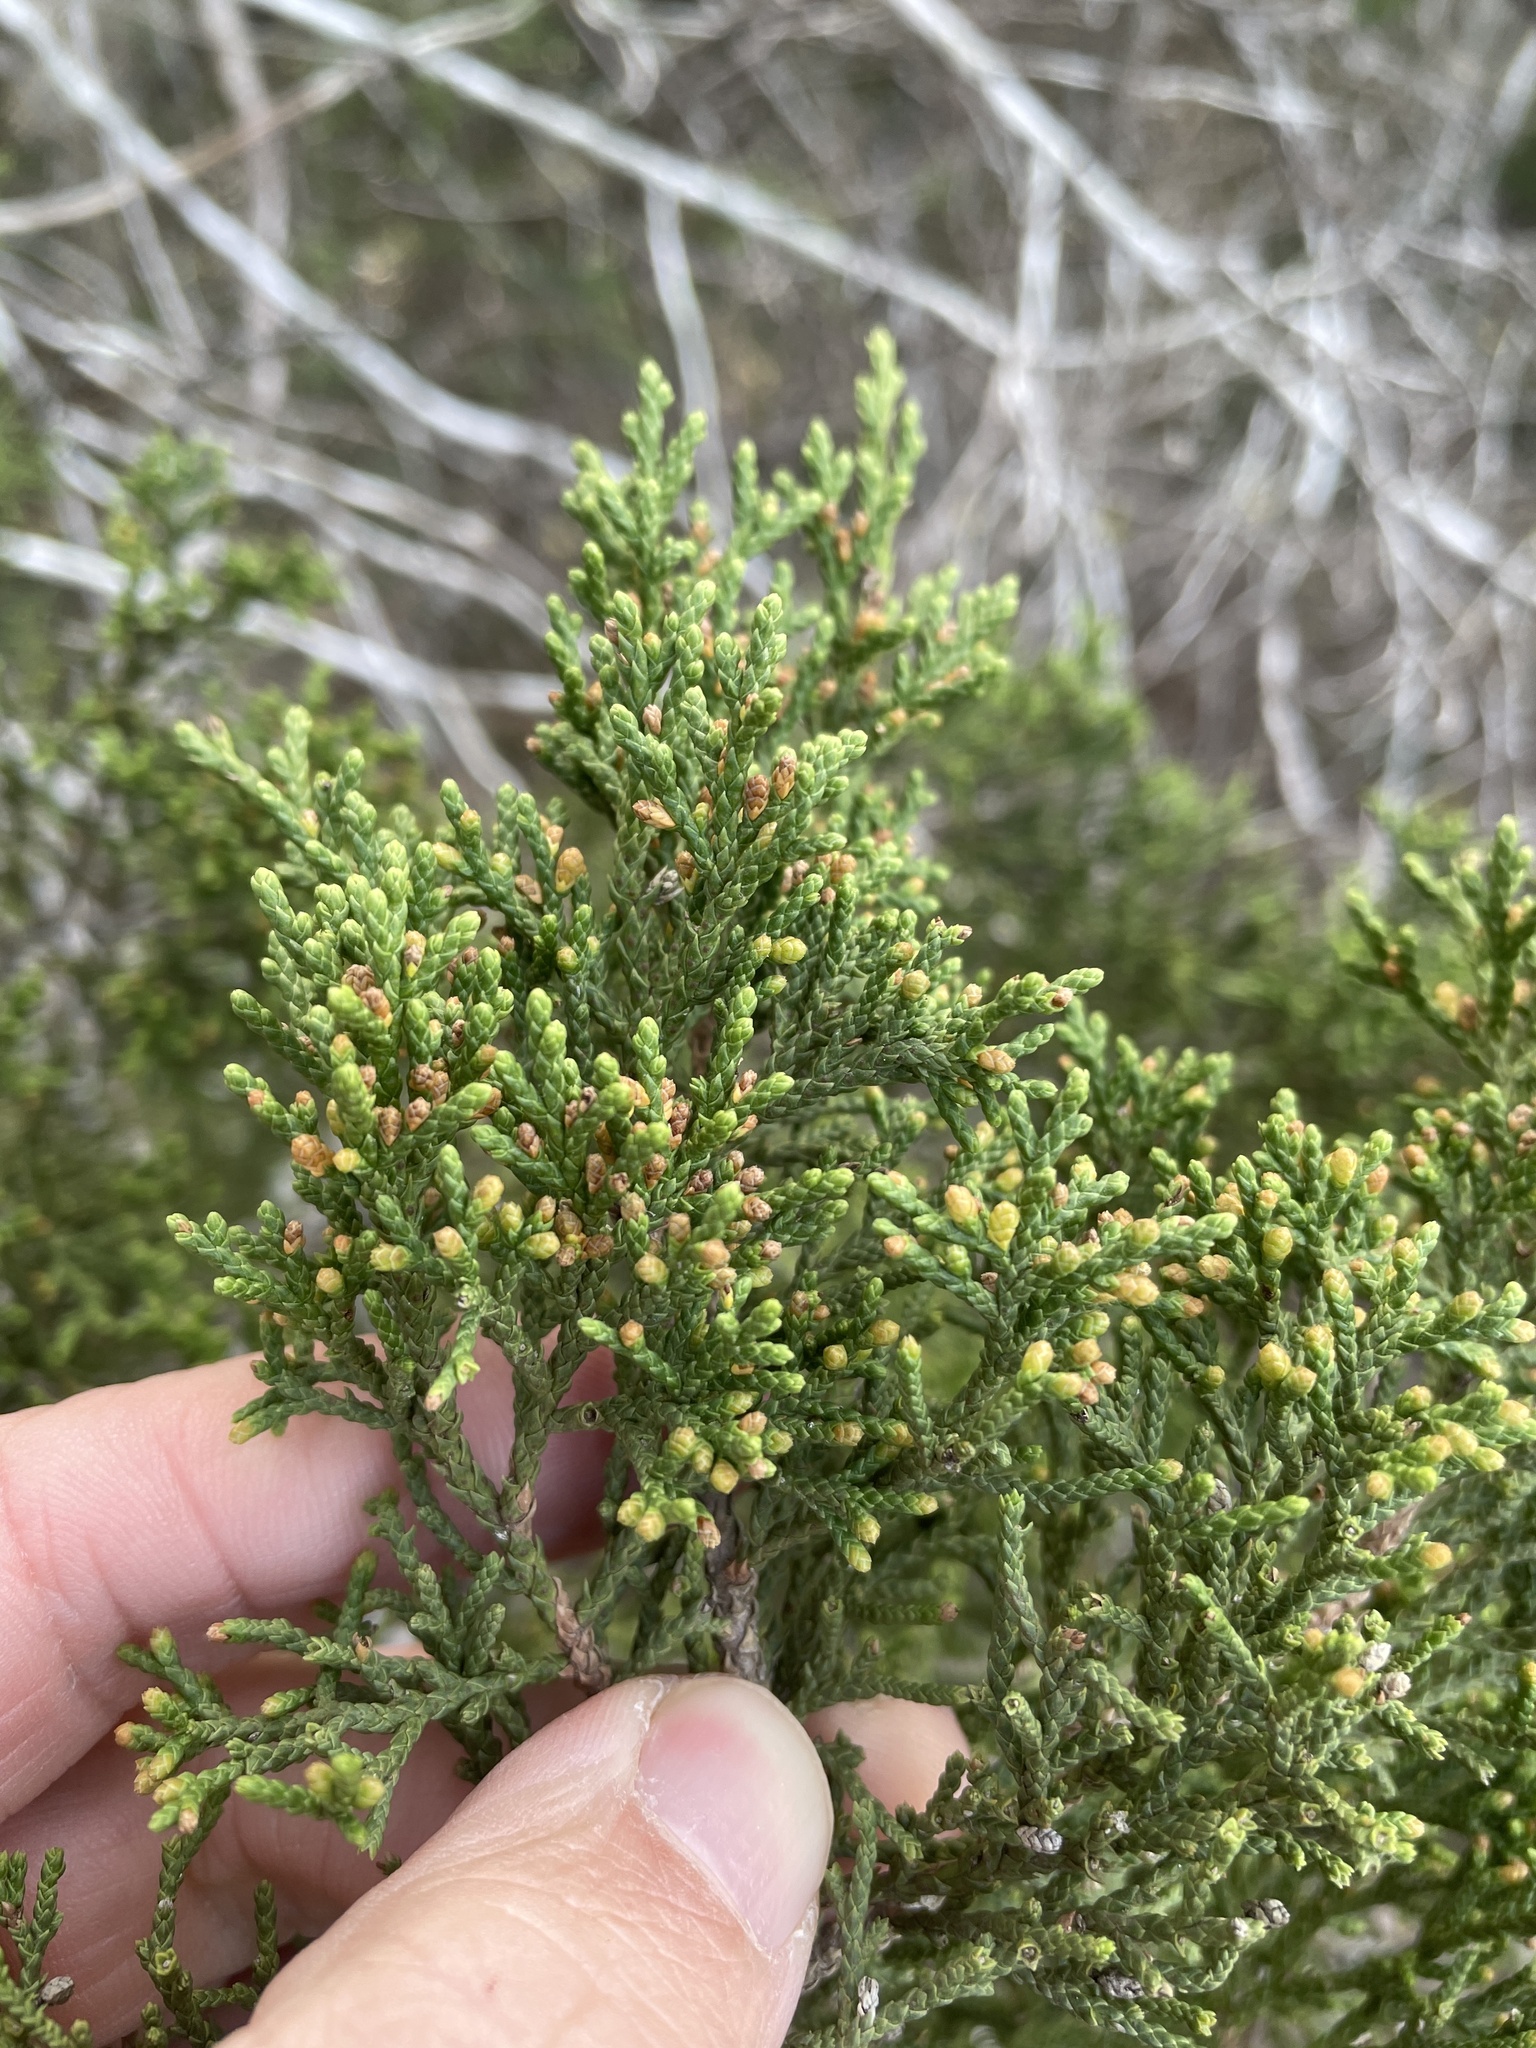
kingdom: Plantae
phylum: Tracheophyta
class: Pinopsida
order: Pinales
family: Cupressaceae
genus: Juniperus
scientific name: Juniperus ashei
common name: Mexican juniper
